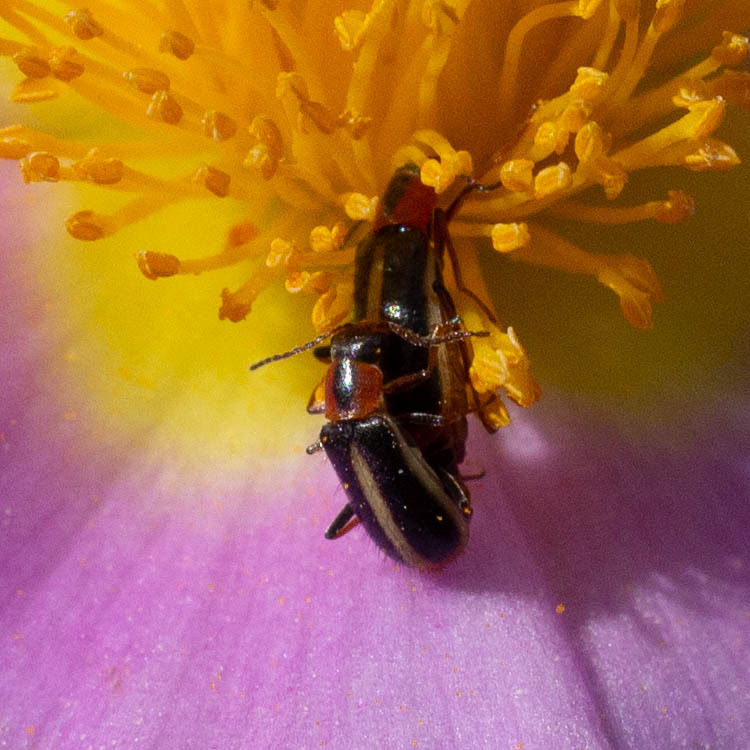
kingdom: Animalia
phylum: Arthropoda
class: Insecta
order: Coleoptera
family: Malachiidae
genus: Attalus
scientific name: Attalus limbatus
